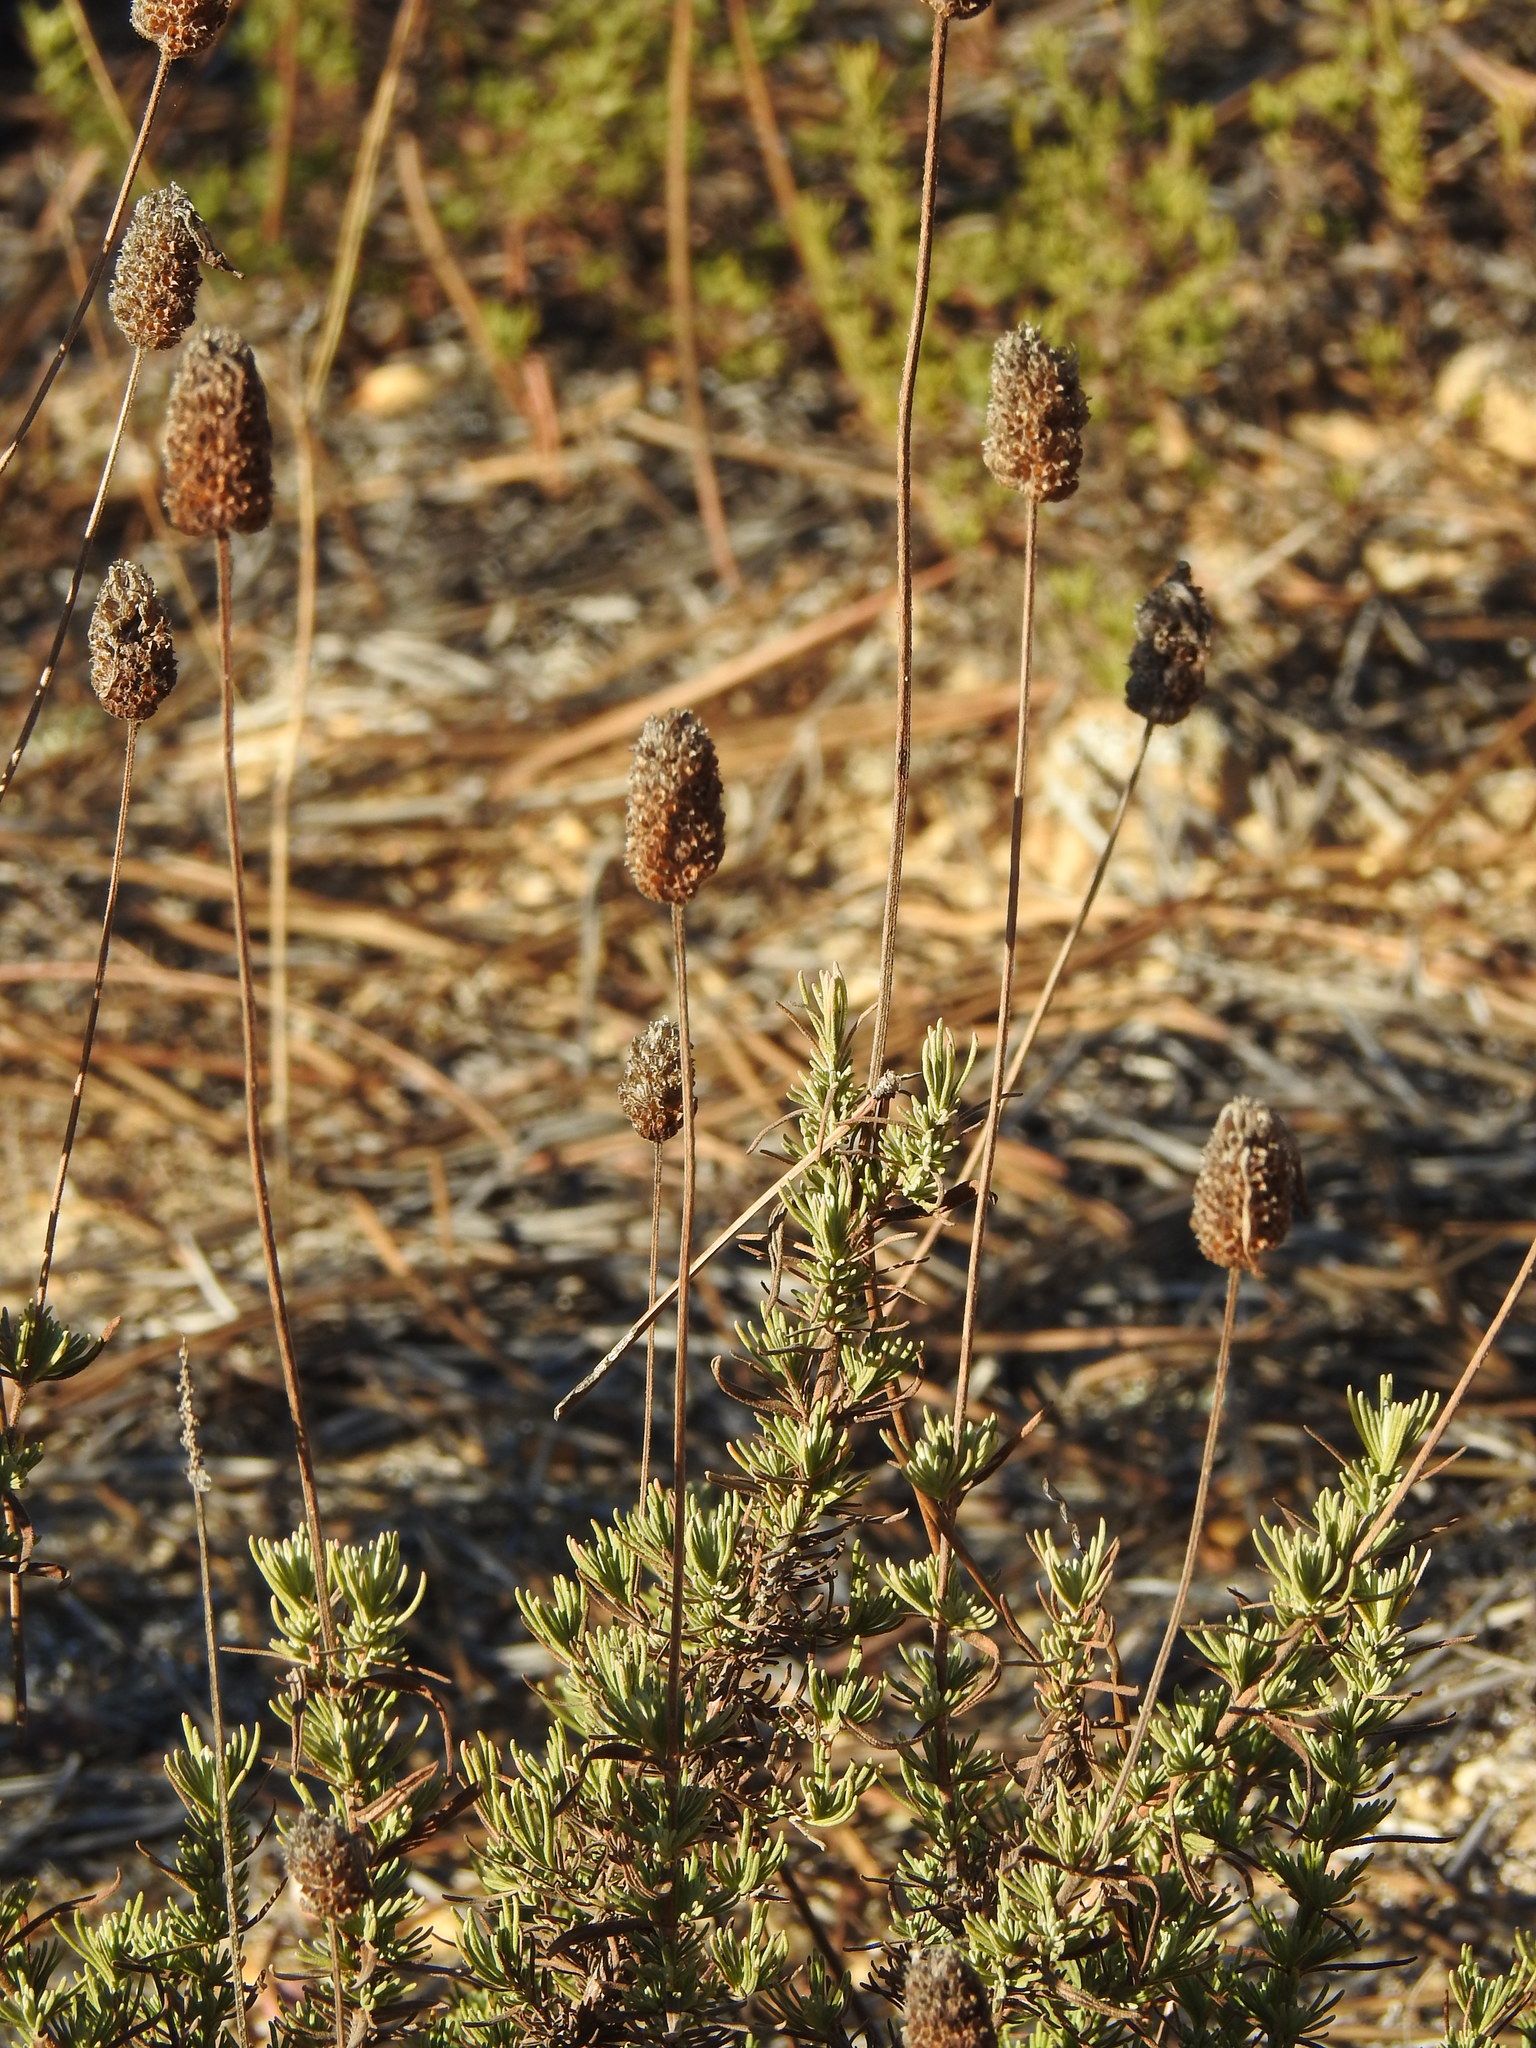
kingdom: Plantae
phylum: Tracheophyta
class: Magnoliopsida
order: Lamiales
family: Lamiaceae
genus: Lavandula
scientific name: Lavandula pedunculata
